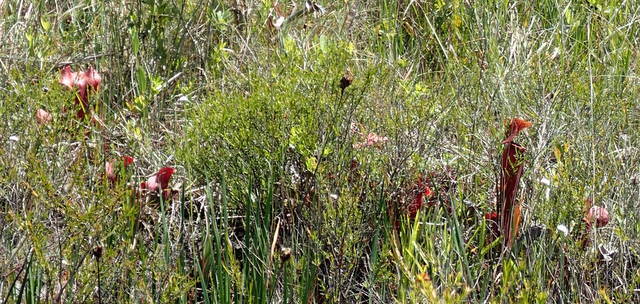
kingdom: Plantae
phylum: Tracheophyta
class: Magnoliopsida
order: Ericales
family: Sarraceniaceae
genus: Sarracenia
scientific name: Sarracenia naczii
